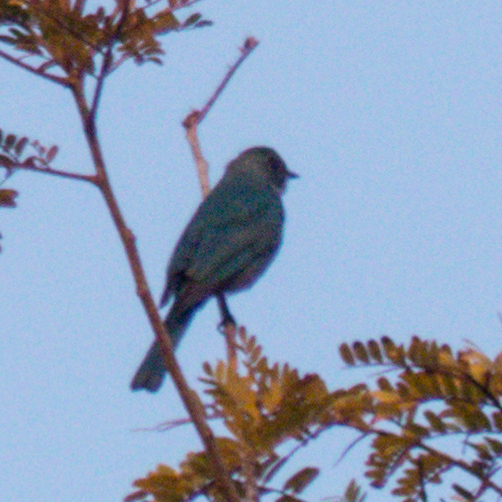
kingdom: Animalia
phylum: Chordata
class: Aves
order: Passeriformes
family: Muscicapidae
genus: Eumyias
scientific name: Eumyias thalassinus
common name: Verditer flycatcher
